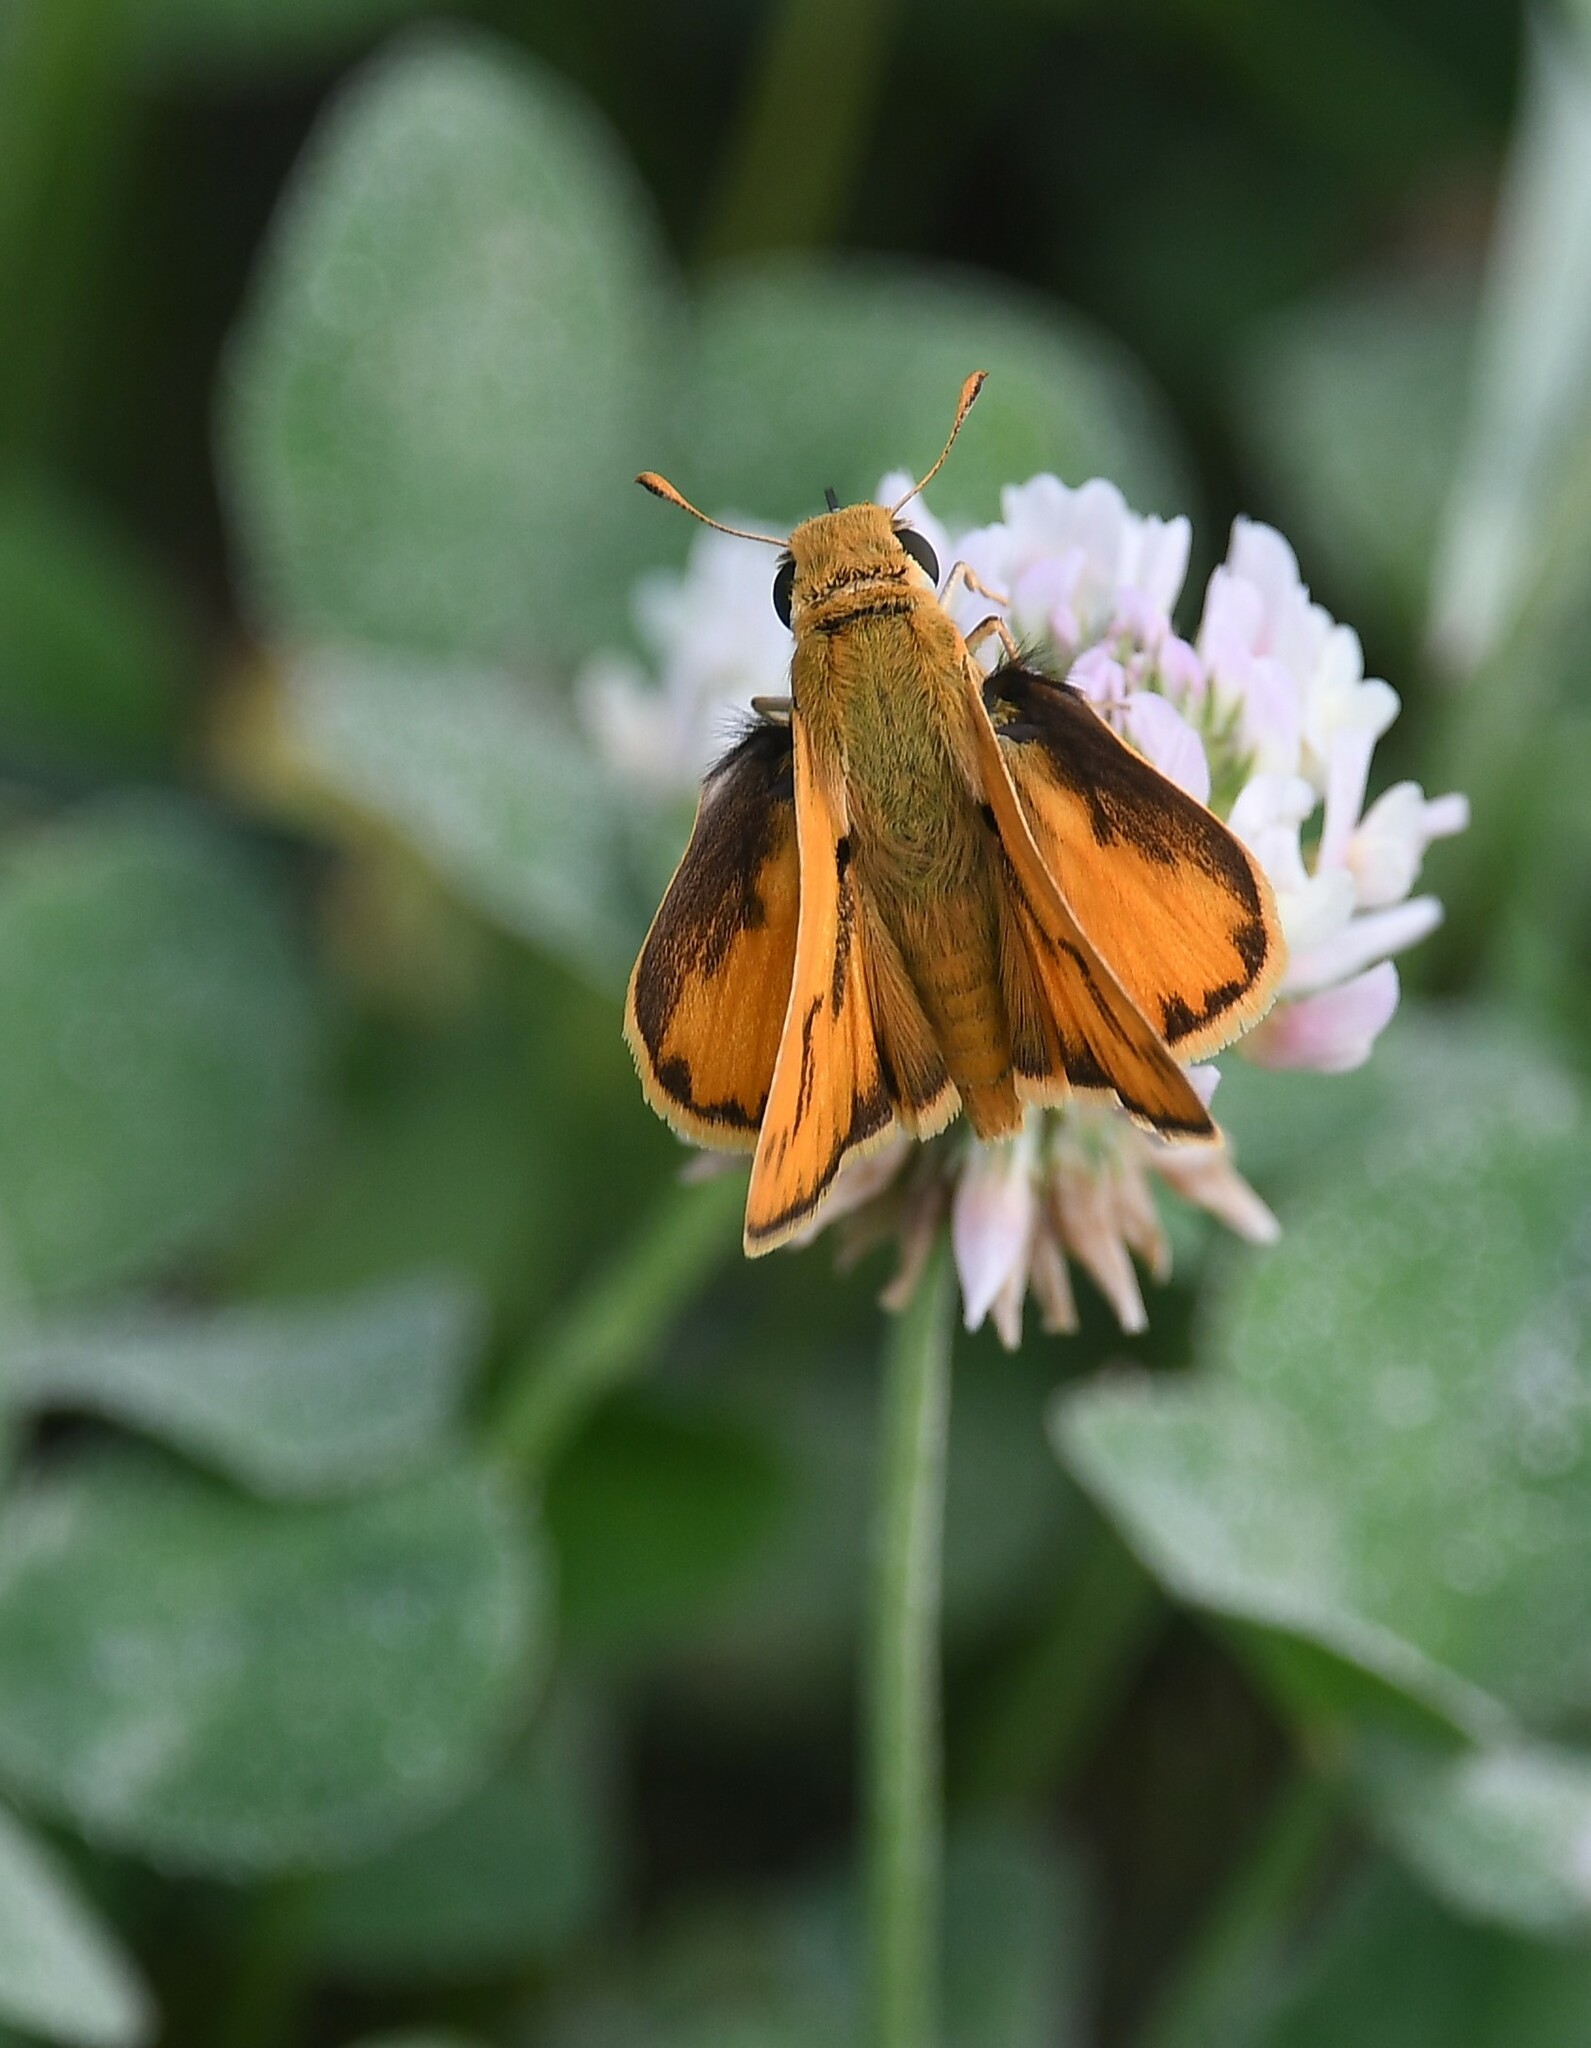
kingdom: Animalia
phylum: Arthropoda
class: Insecta
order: Lepidoptera
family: Hesperiidae
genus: Hylephila
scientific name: Hylephila phyleus
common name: Fiery skipper
